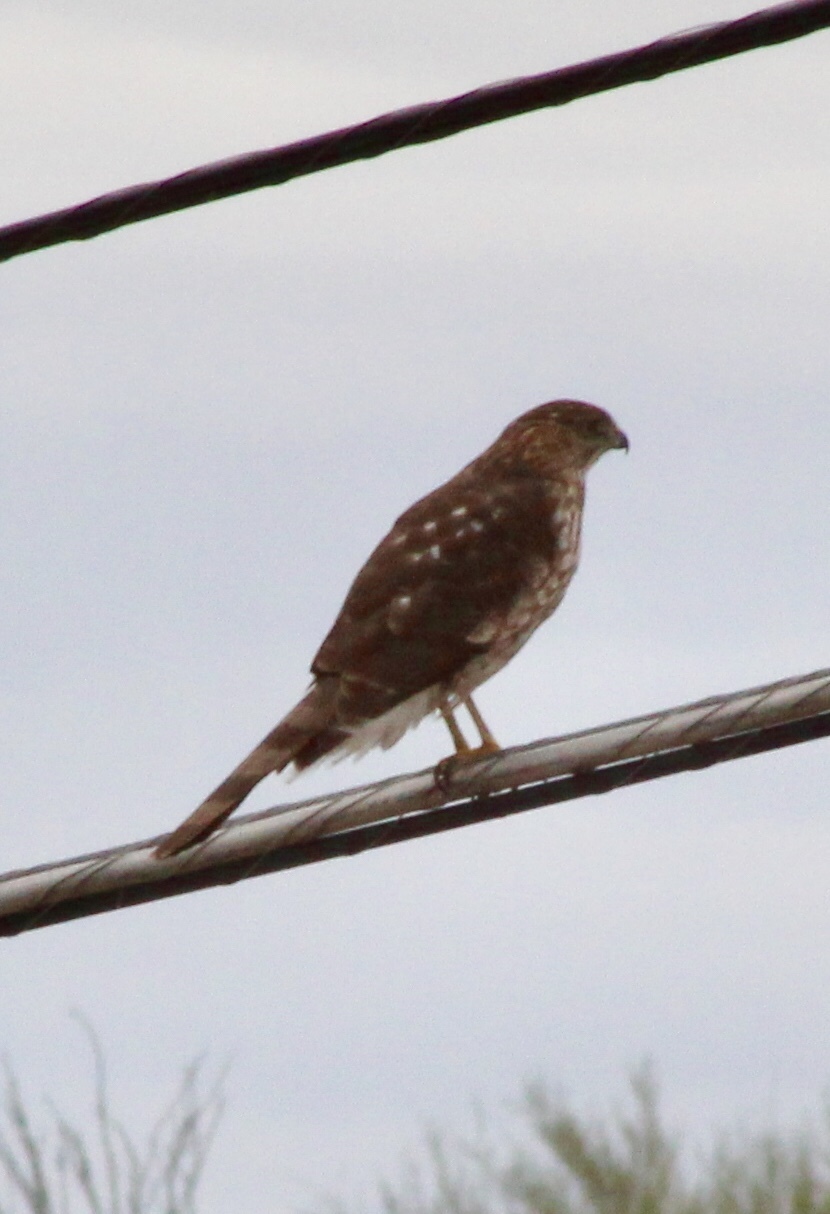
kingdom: Animalia
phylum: Chordata
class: Aves
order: Accipitriformes
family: Accipitridae
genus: Accipiter
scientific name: Accipiter cooperii
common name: Cooper's hawk
